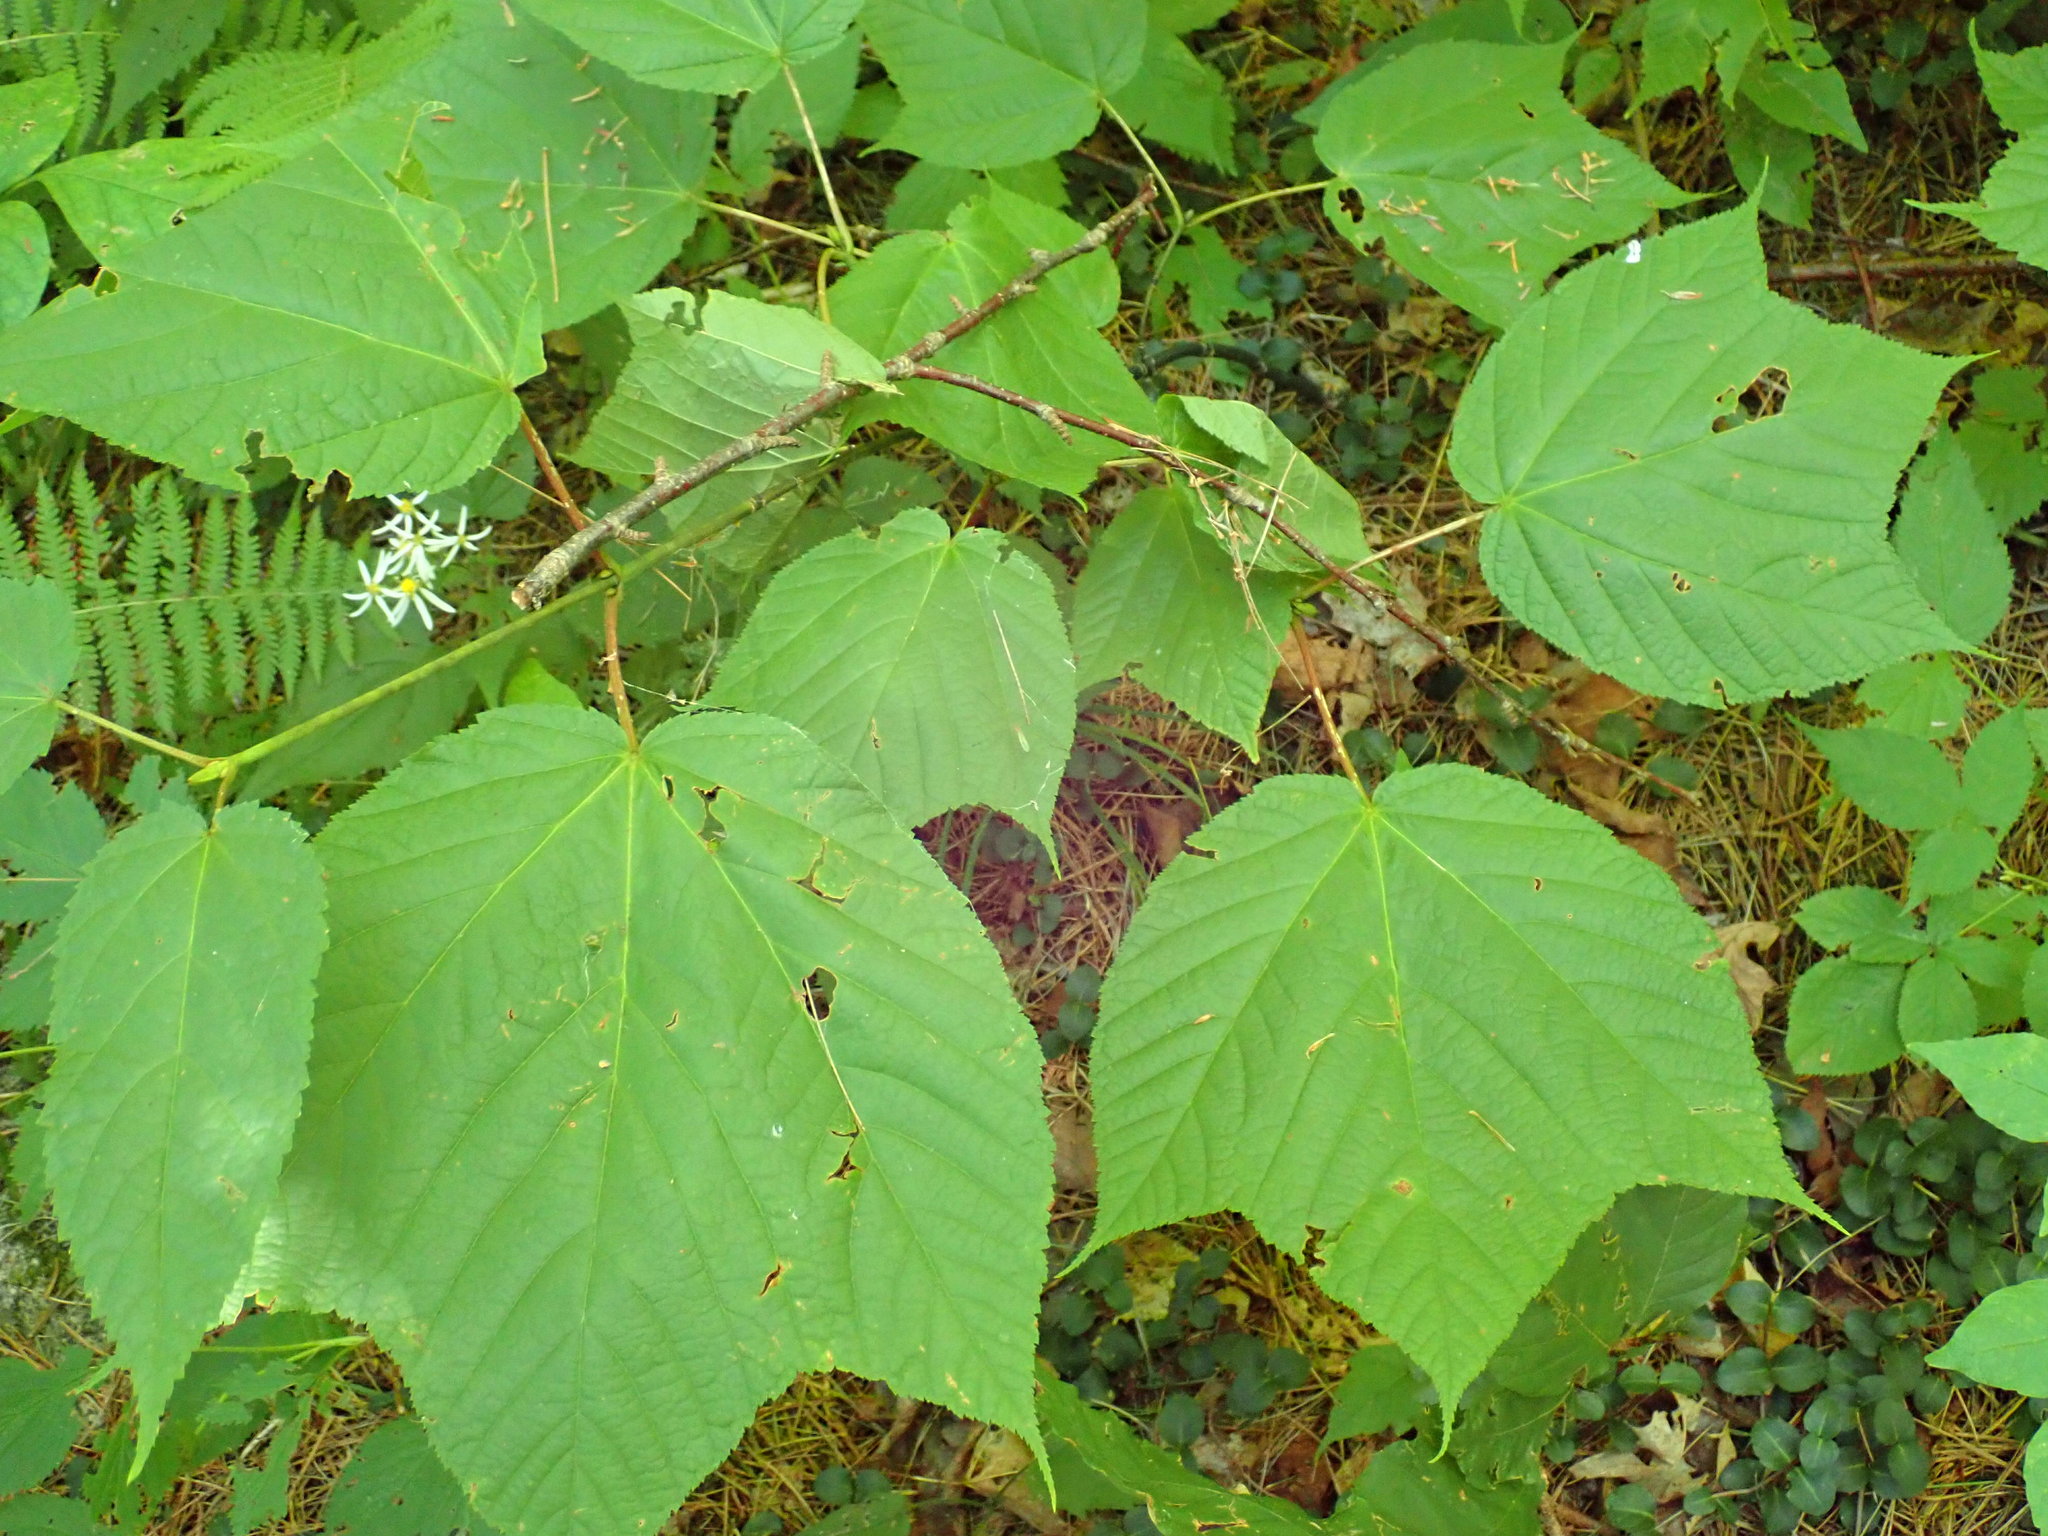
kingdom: Plantae
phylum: Tracheophyta
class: Magnoliopsida
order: Sapindales
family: Sapindaceae
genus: Acer
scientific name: Acer pensylvanicum
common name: Moosewood
